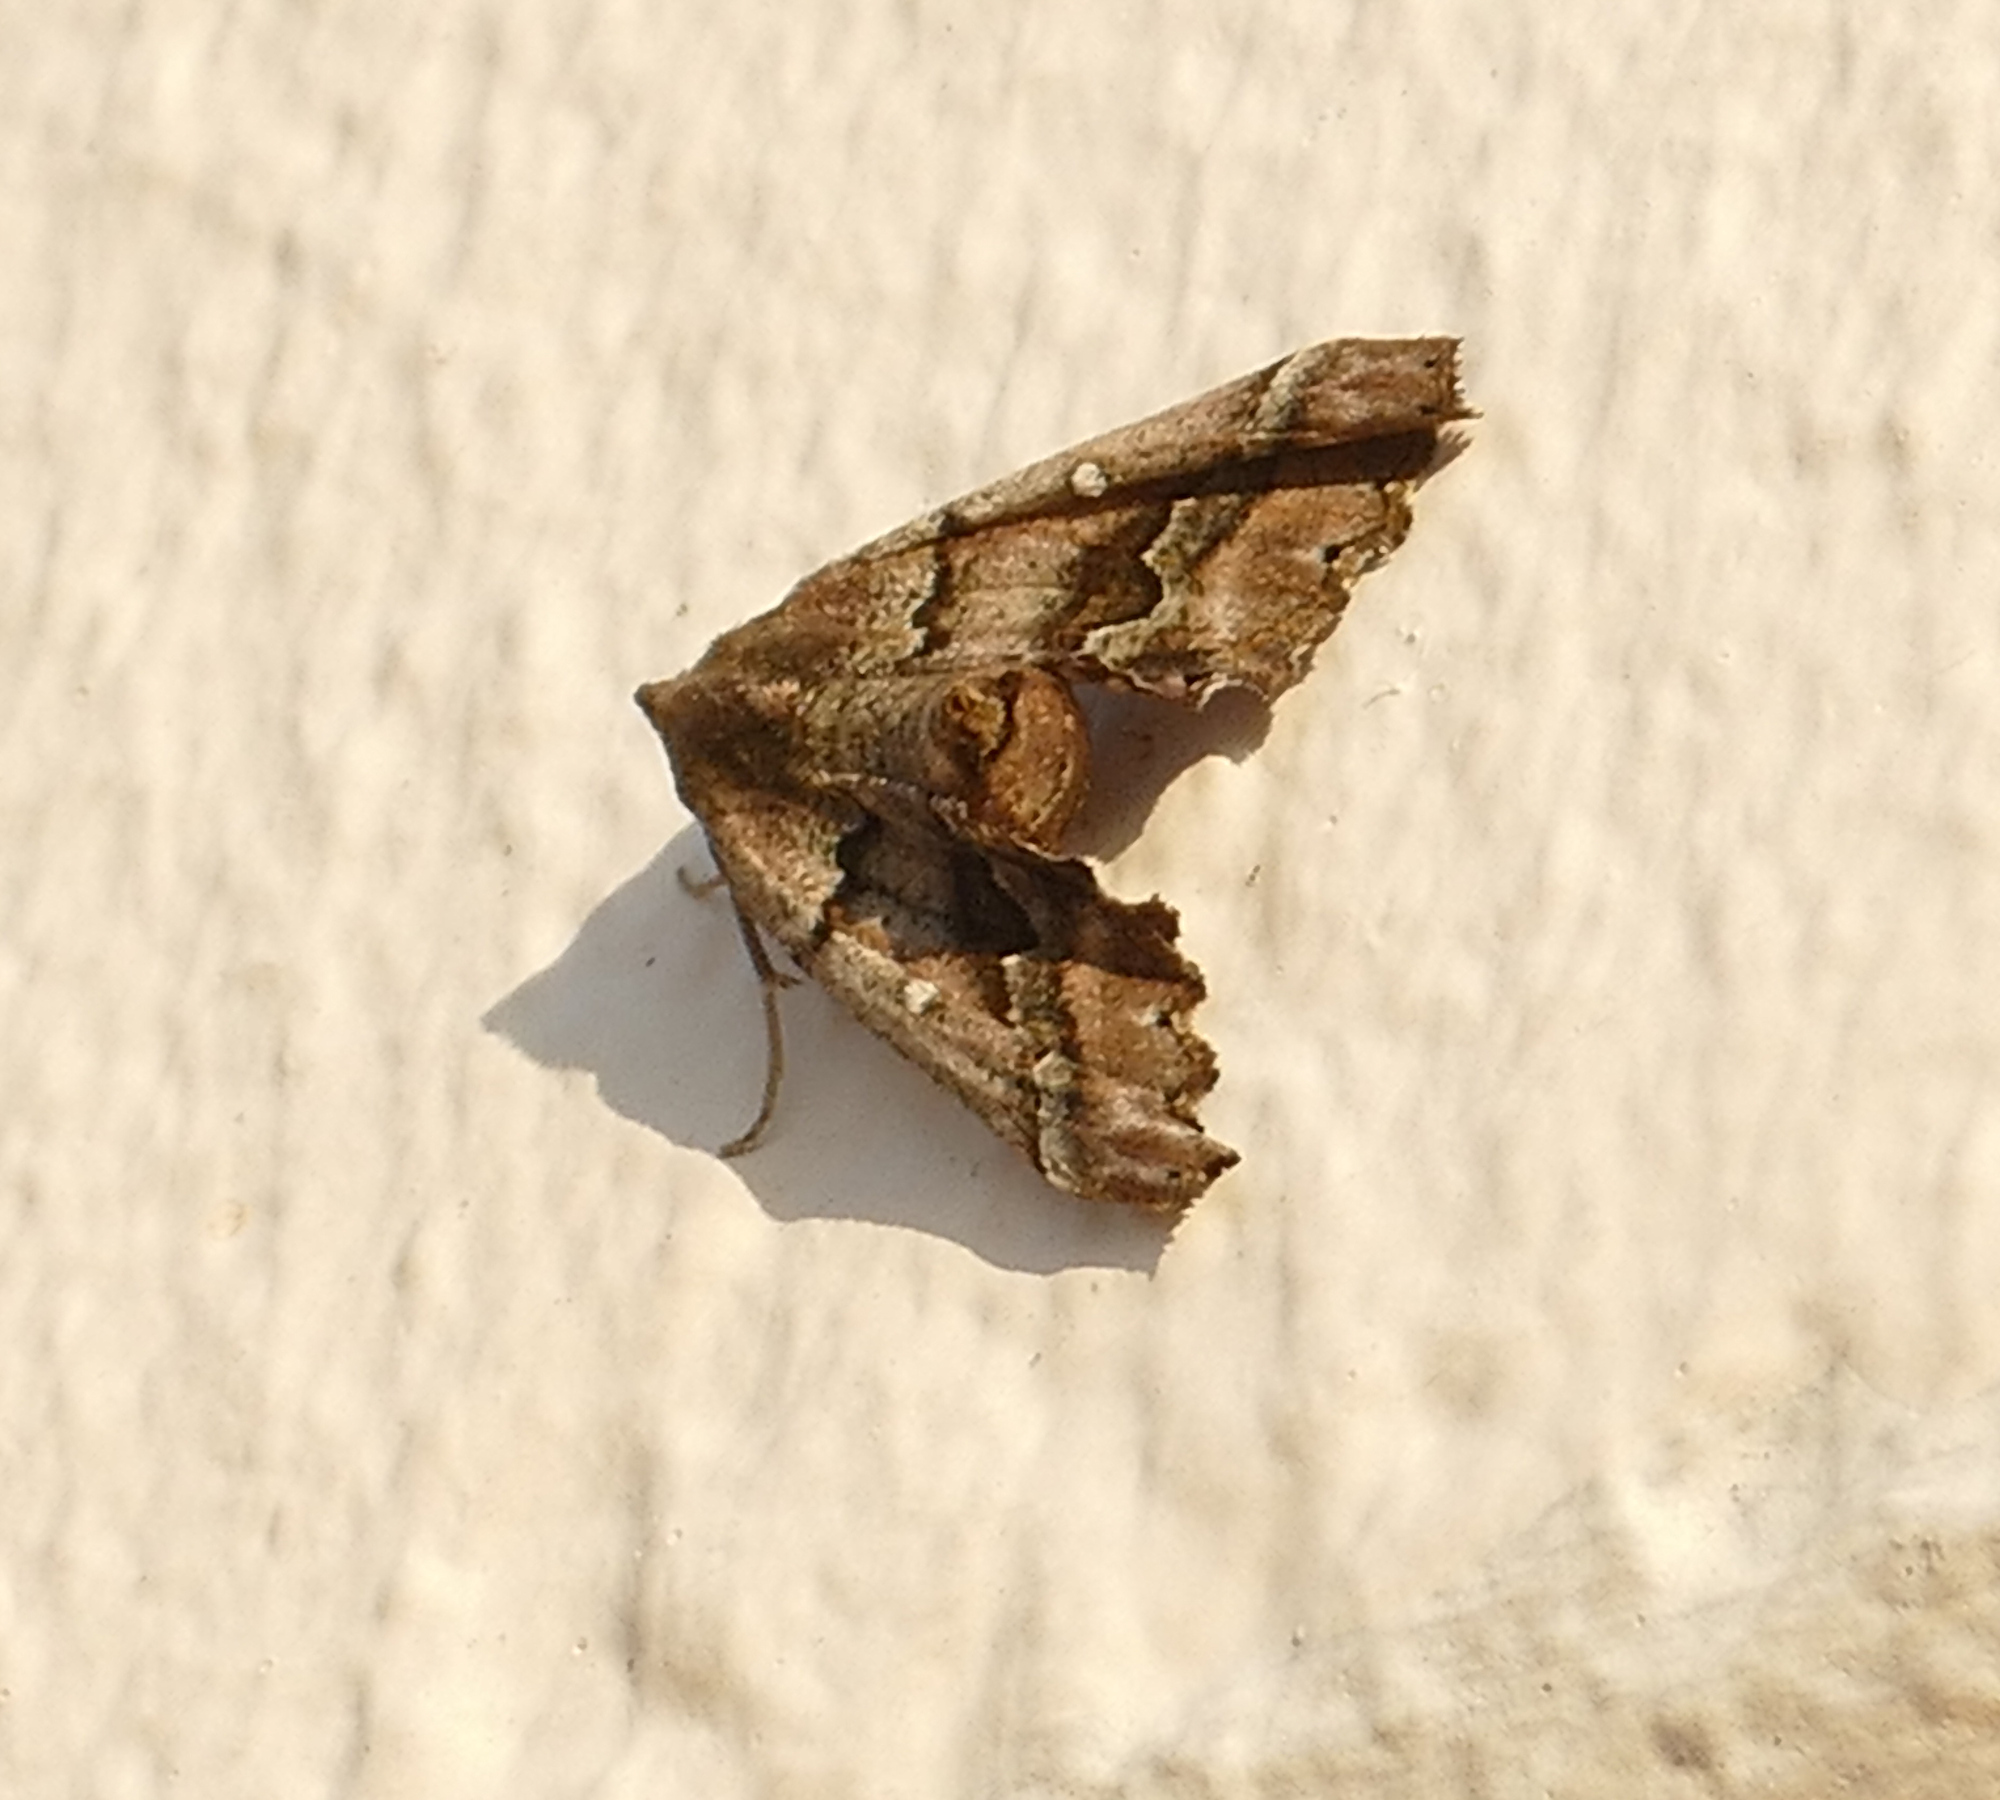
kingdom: Animalia
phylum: Arthropoda
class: Insecta
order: Lepidoptera
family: Geometridae
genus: Pero
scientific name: Pero meskaria
